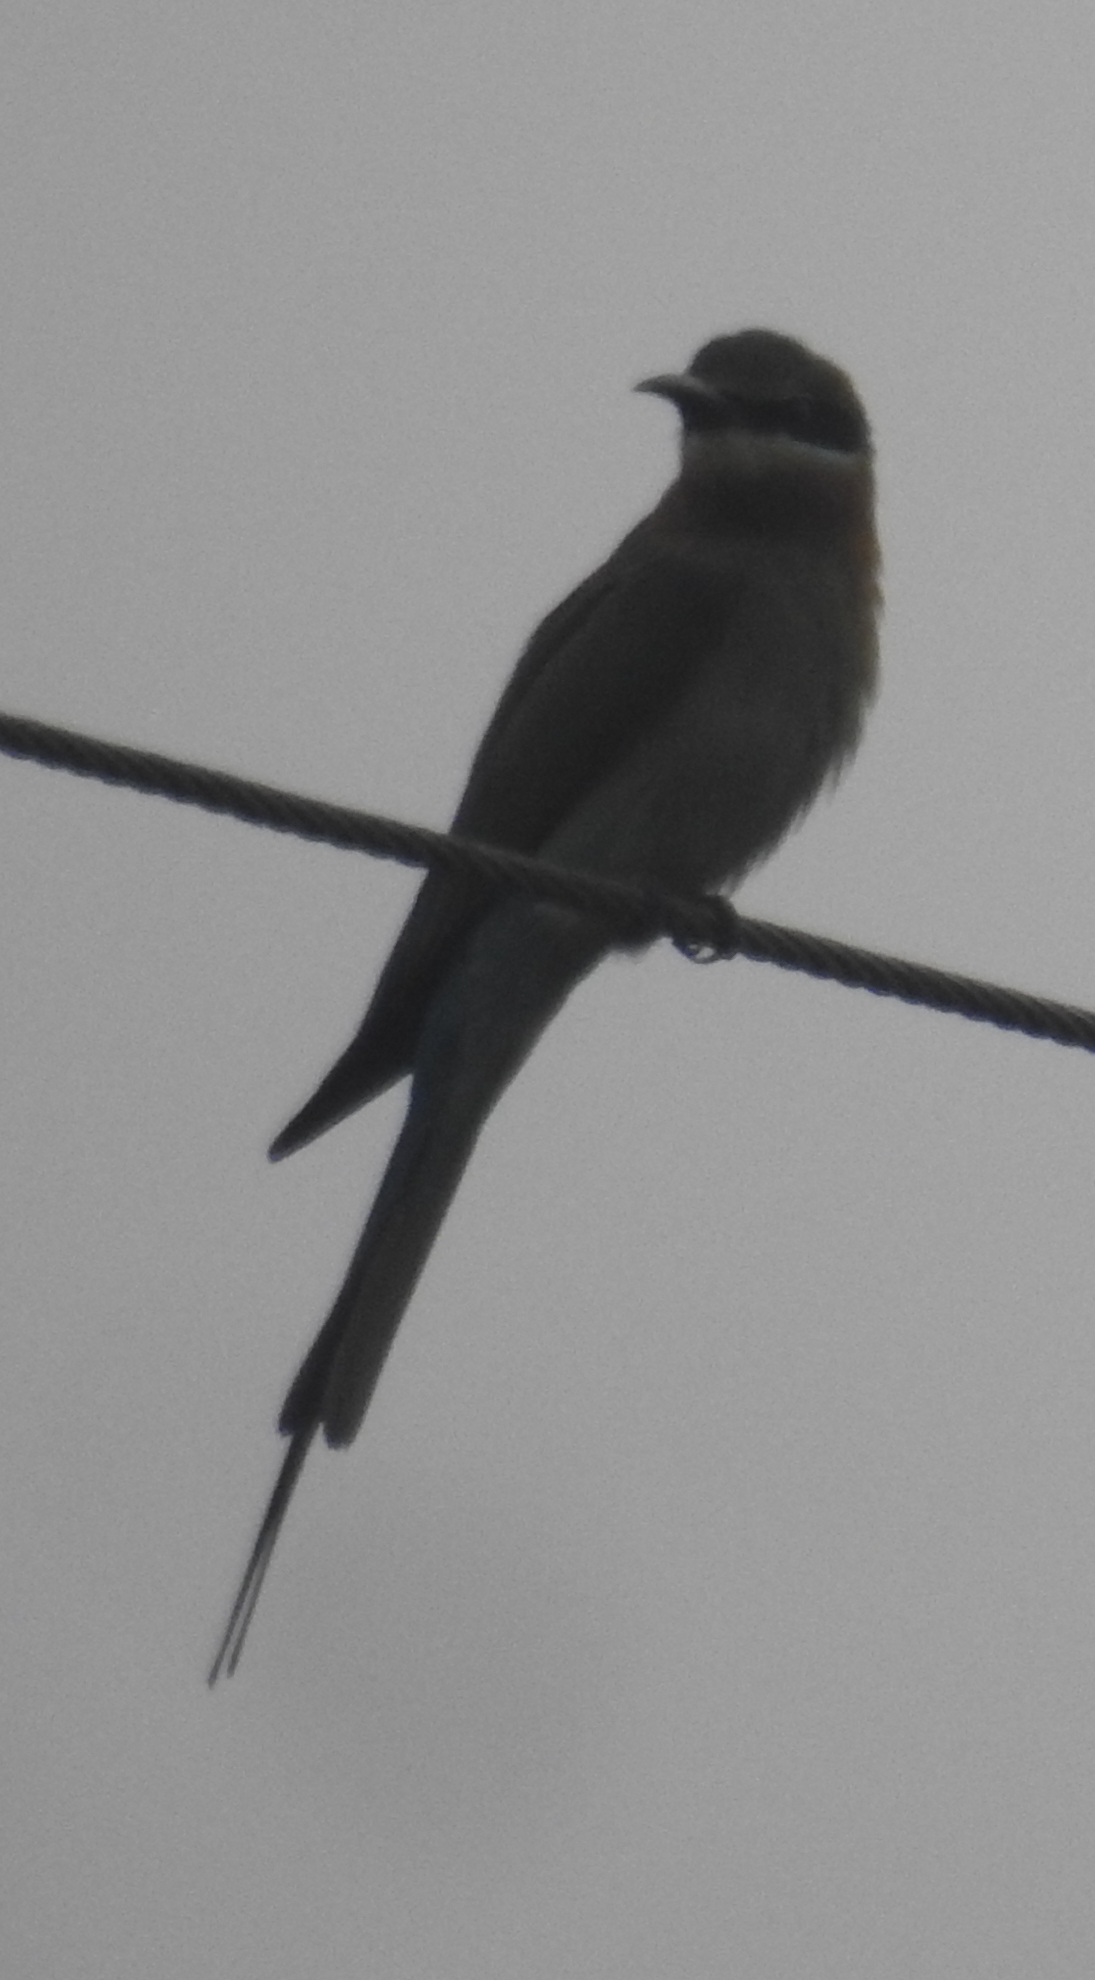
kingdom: Animalia
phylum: Chordata
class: Aves
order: Coraciiformes
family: Meropidae
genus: Merops
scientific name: Merops philippinus
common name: Blue-tailed bee-eater
